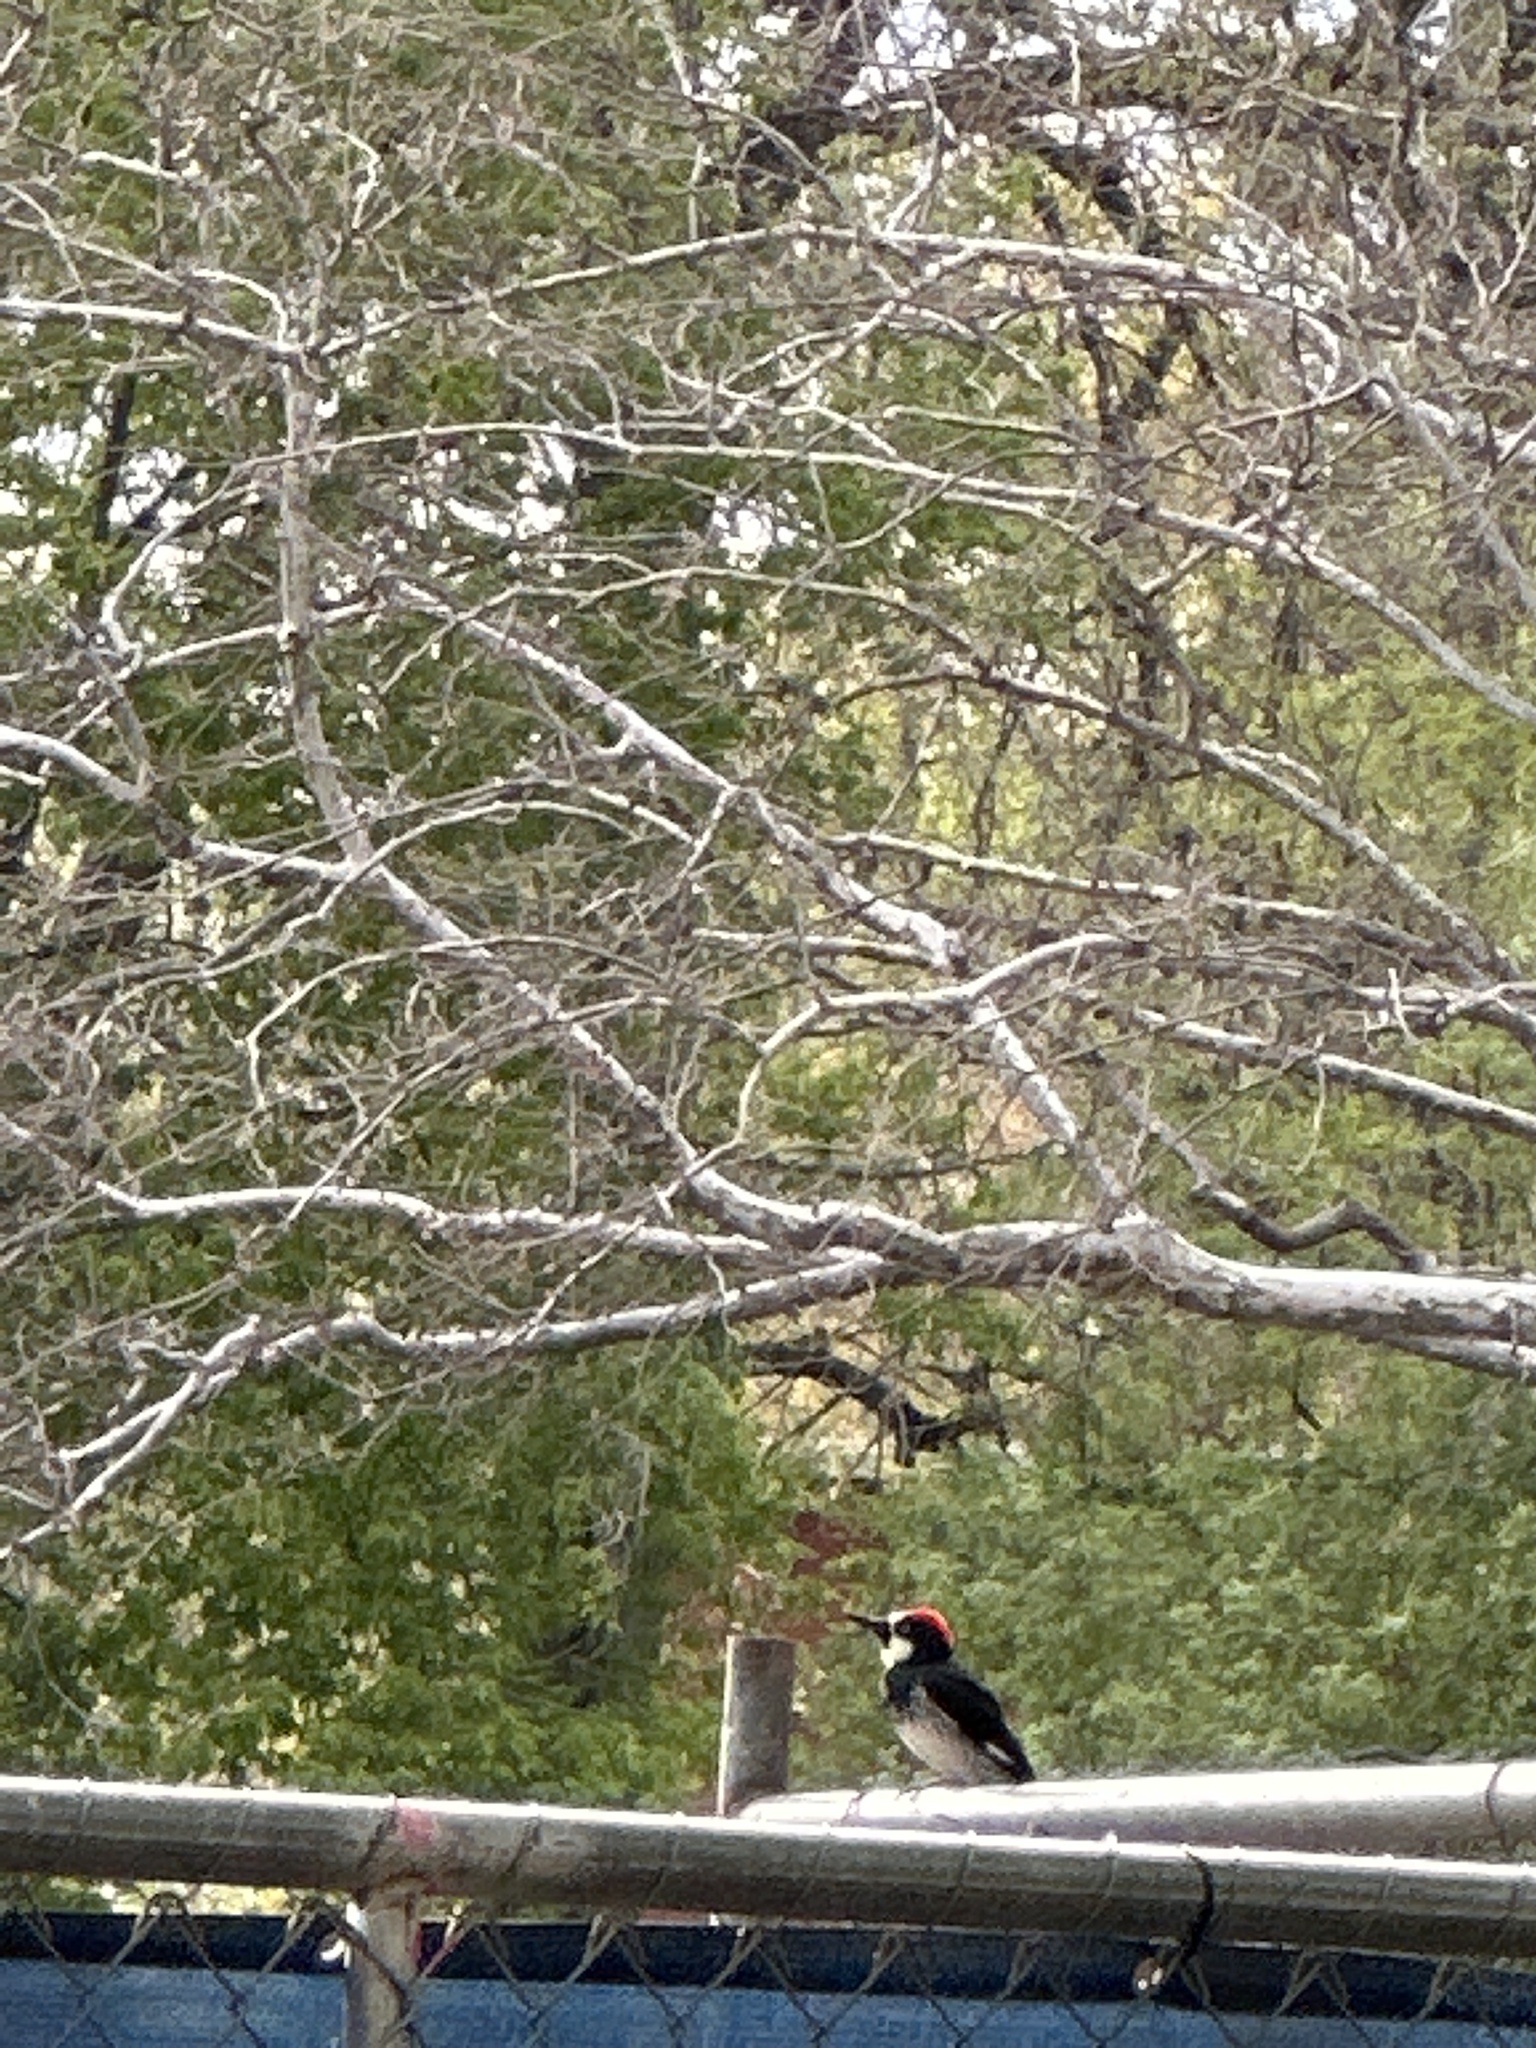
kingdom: Animalia
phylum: Chordata
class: Aves
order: Piciformes
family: Picidae
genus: Melanerpes
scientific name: Melanerpes formicivorus
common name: Acorn woodpecker
